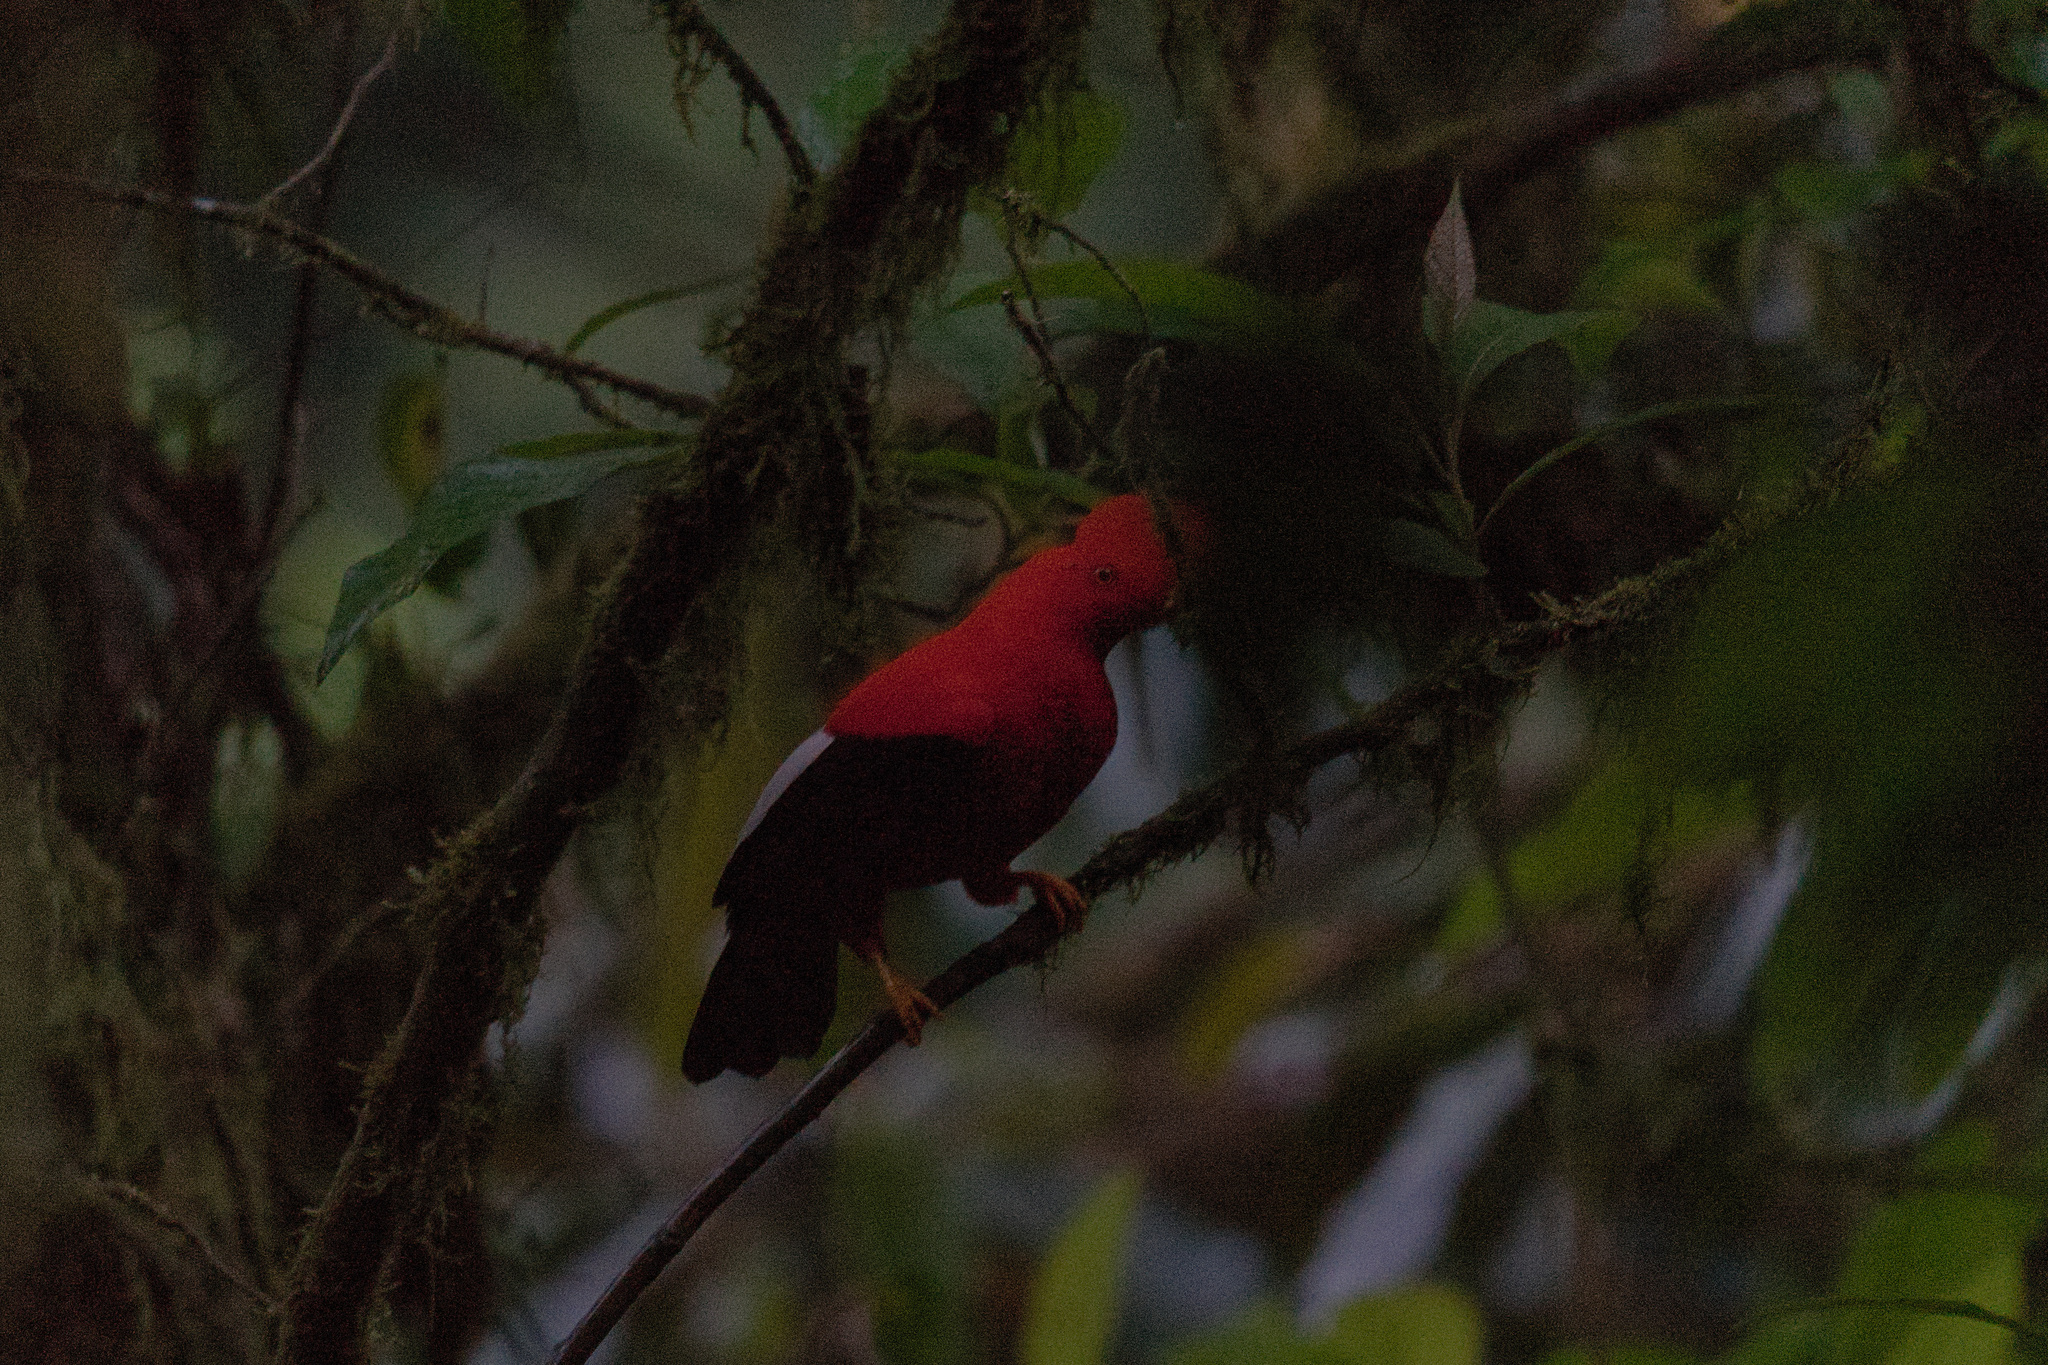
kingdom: Animalia
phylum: Chordata
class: Aves
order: Passeriformes
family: Cotingidae
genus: Rupicola
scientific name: Rupicola peruvianus
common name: Andean cock-of-the-rock
